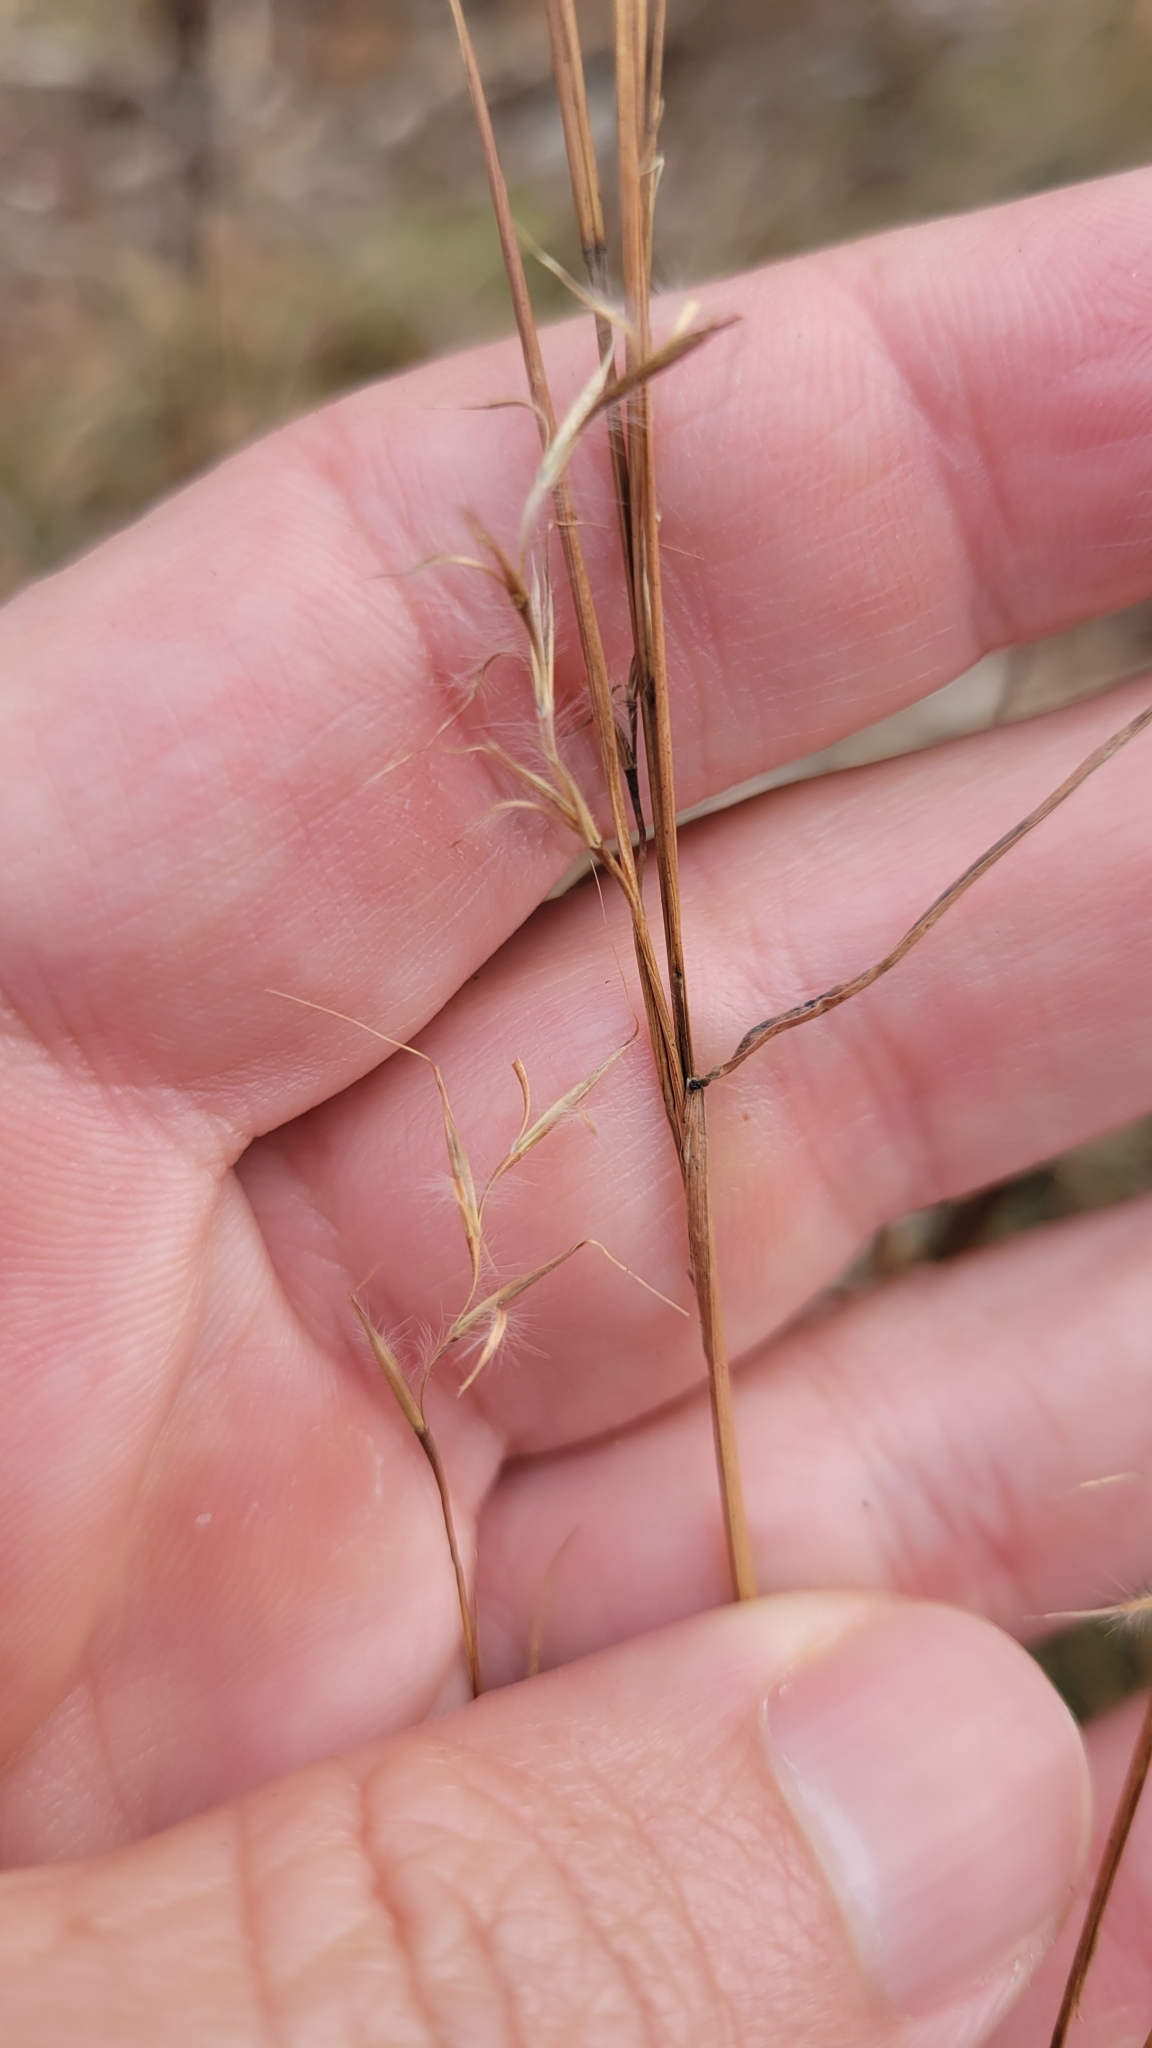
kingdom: Plantae
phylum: Tracheophyta
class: Liliopsida
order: Poales
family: Poaceae
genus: Schizachyrium
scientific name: Schizachyrium scoparium
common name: Little bluestem
